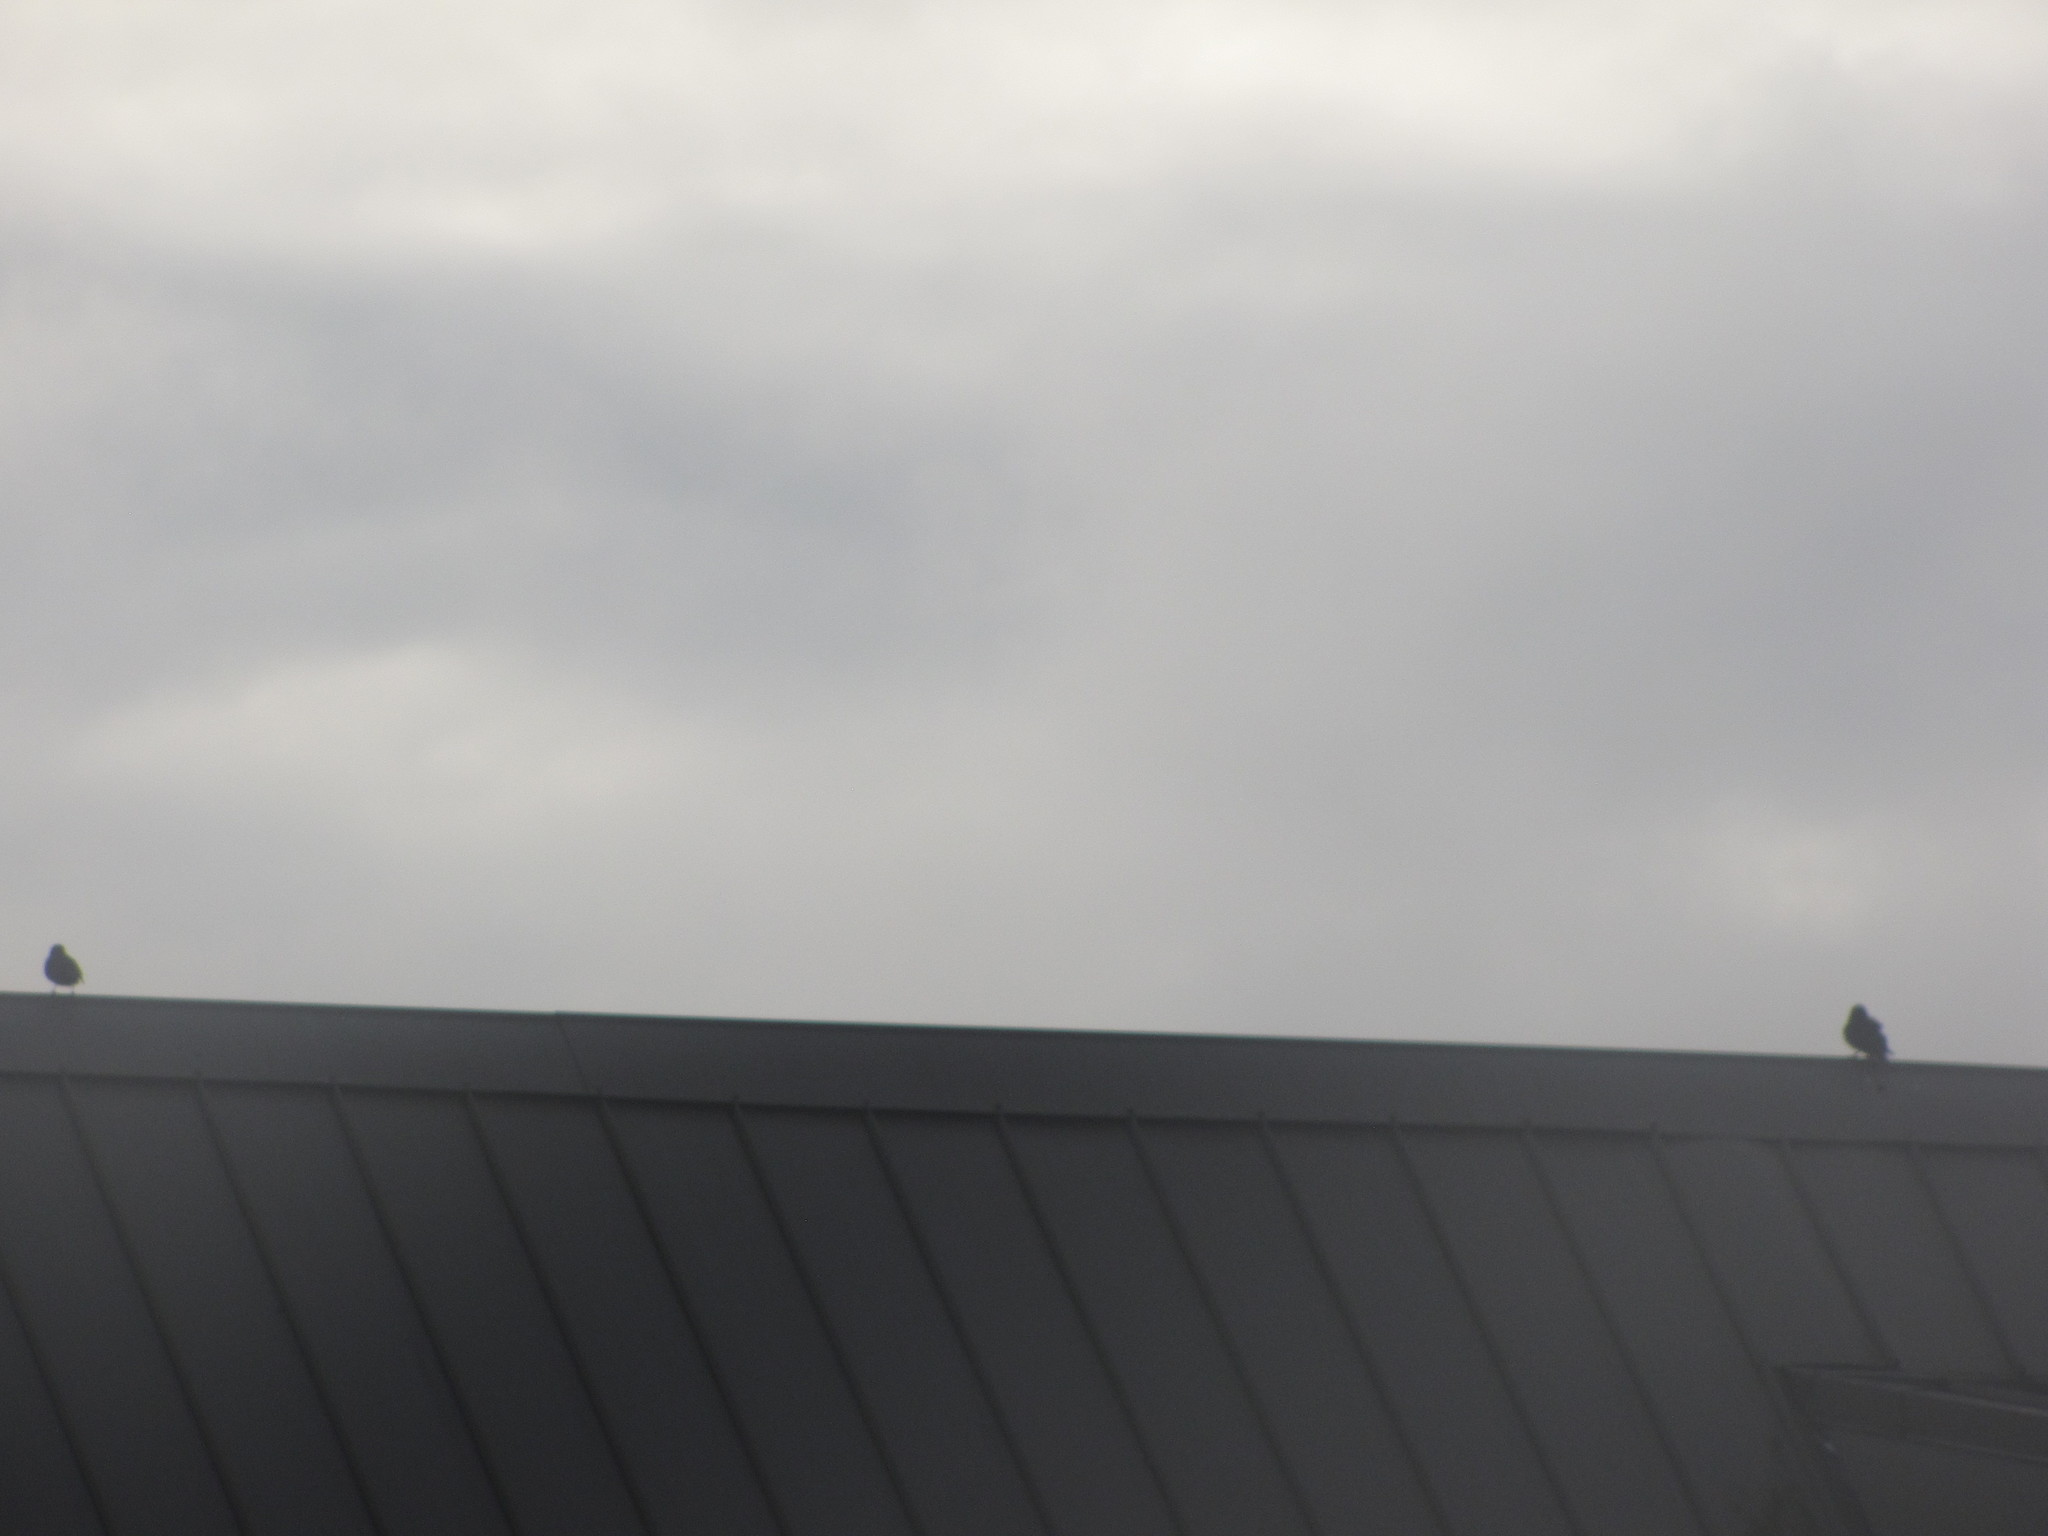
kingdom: Animalia
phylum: Chordata
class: Aves
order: Passeriformes
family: Sturnidae
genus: Sturnus
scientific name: Sturnus vulgaris
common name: Common starling
